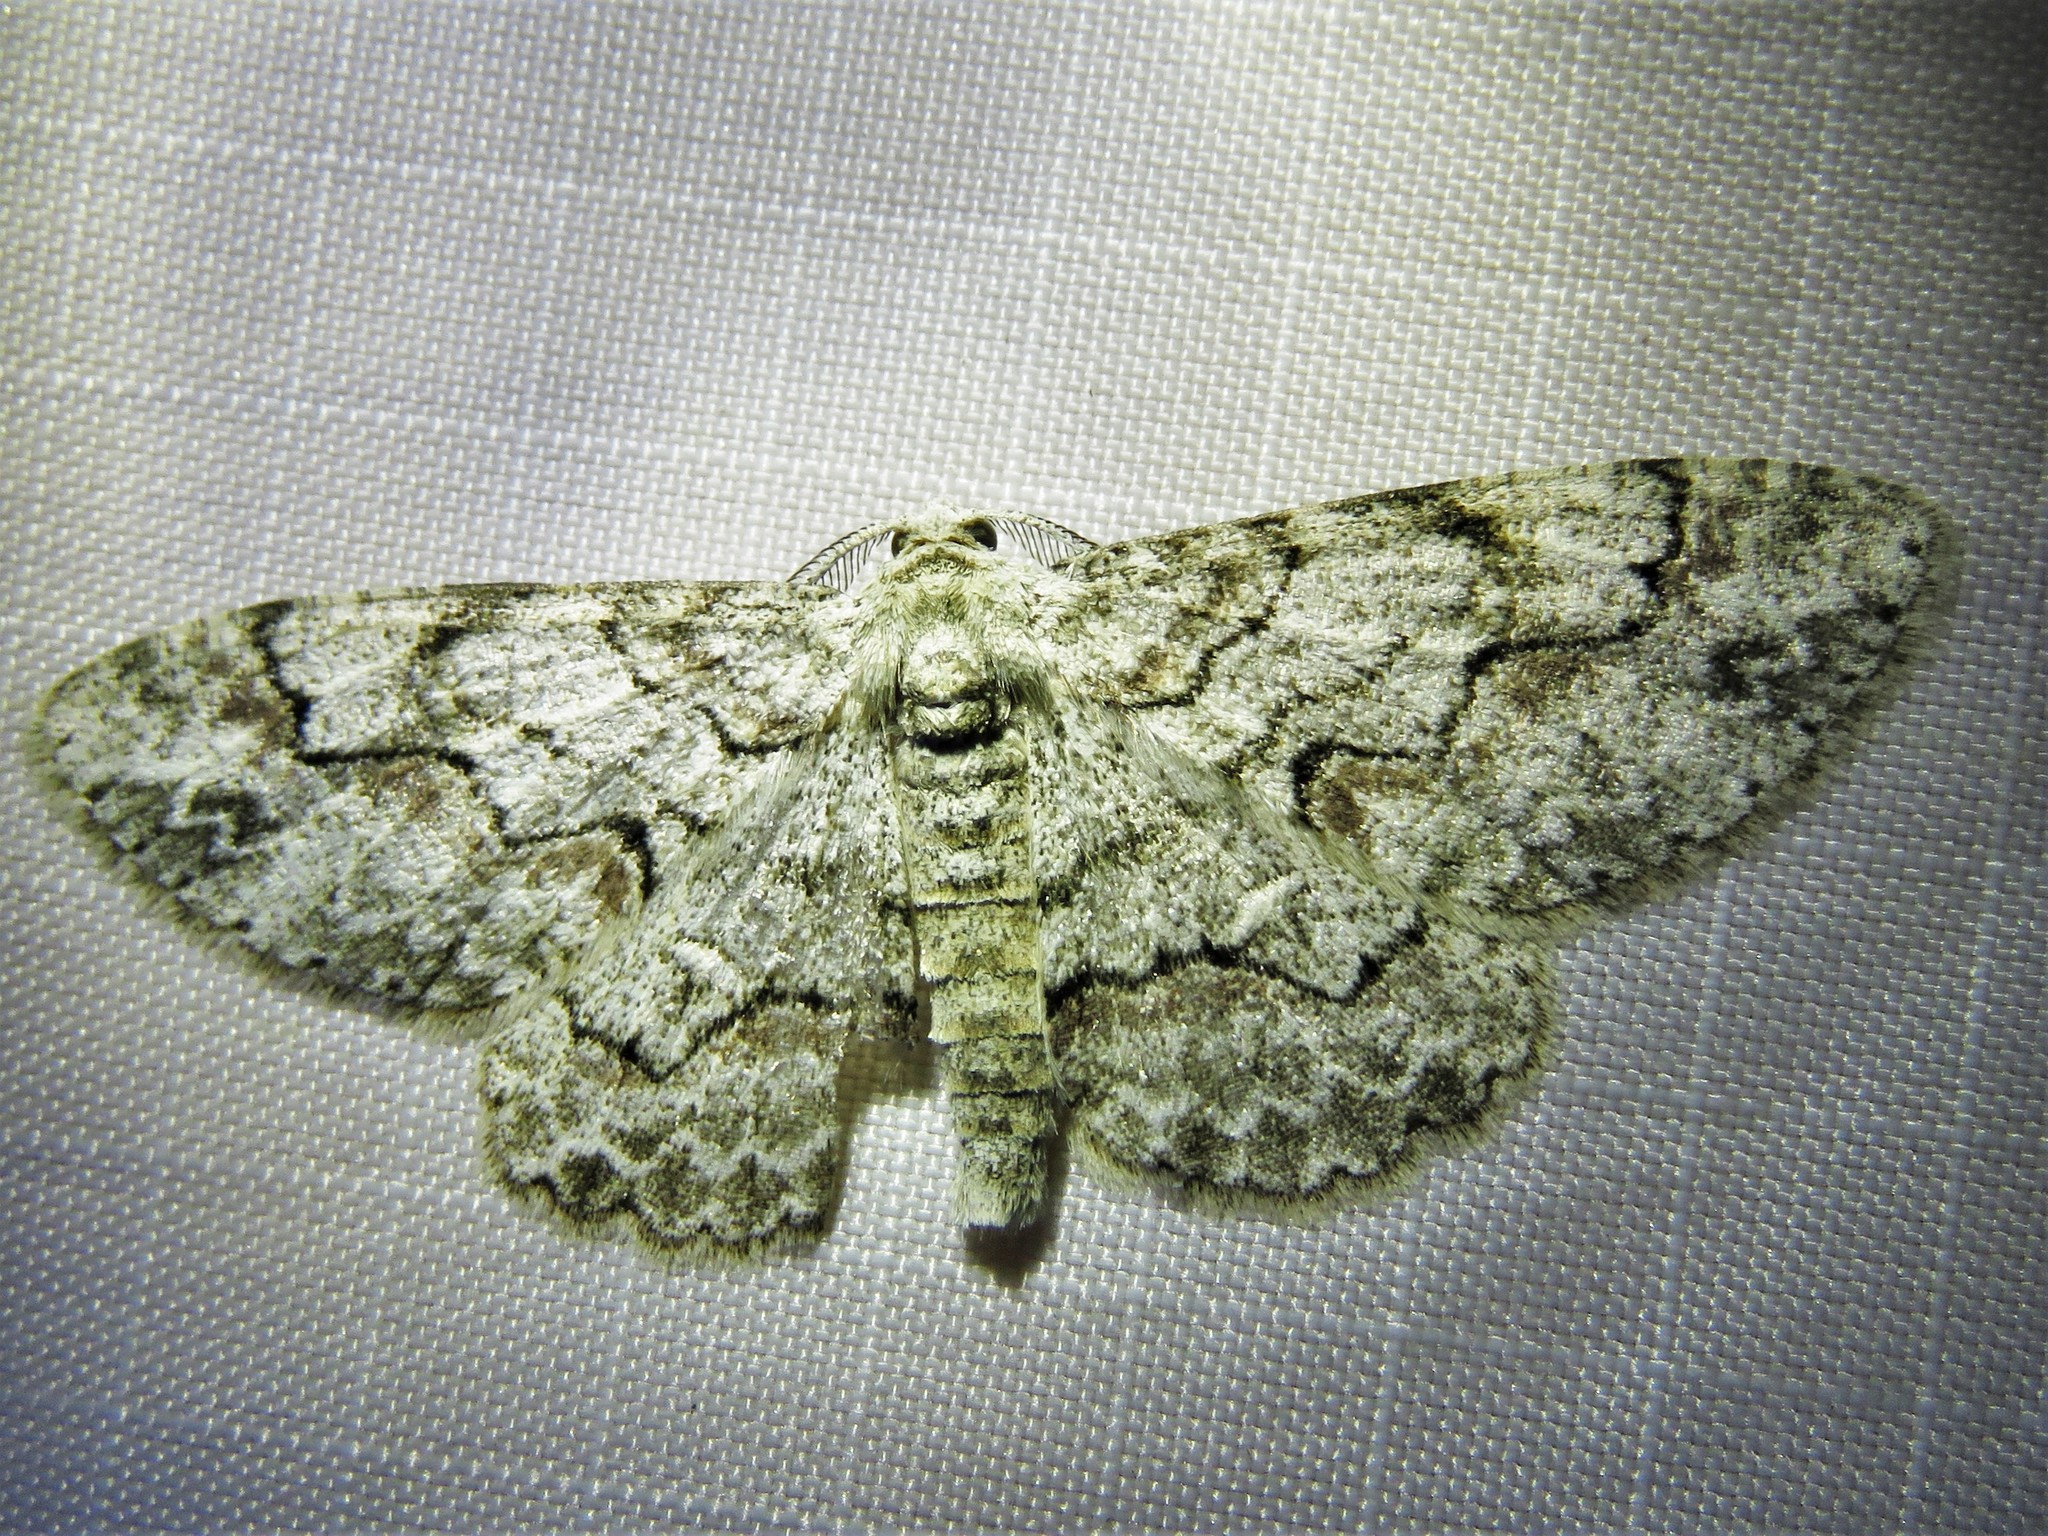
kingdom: Animalia
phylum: Arthropoda
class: Insecta
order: Lepidoptera
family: Geometridae
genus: Iridopsis
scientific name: Iridopsis defectaria
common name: Brown-shaded gray
